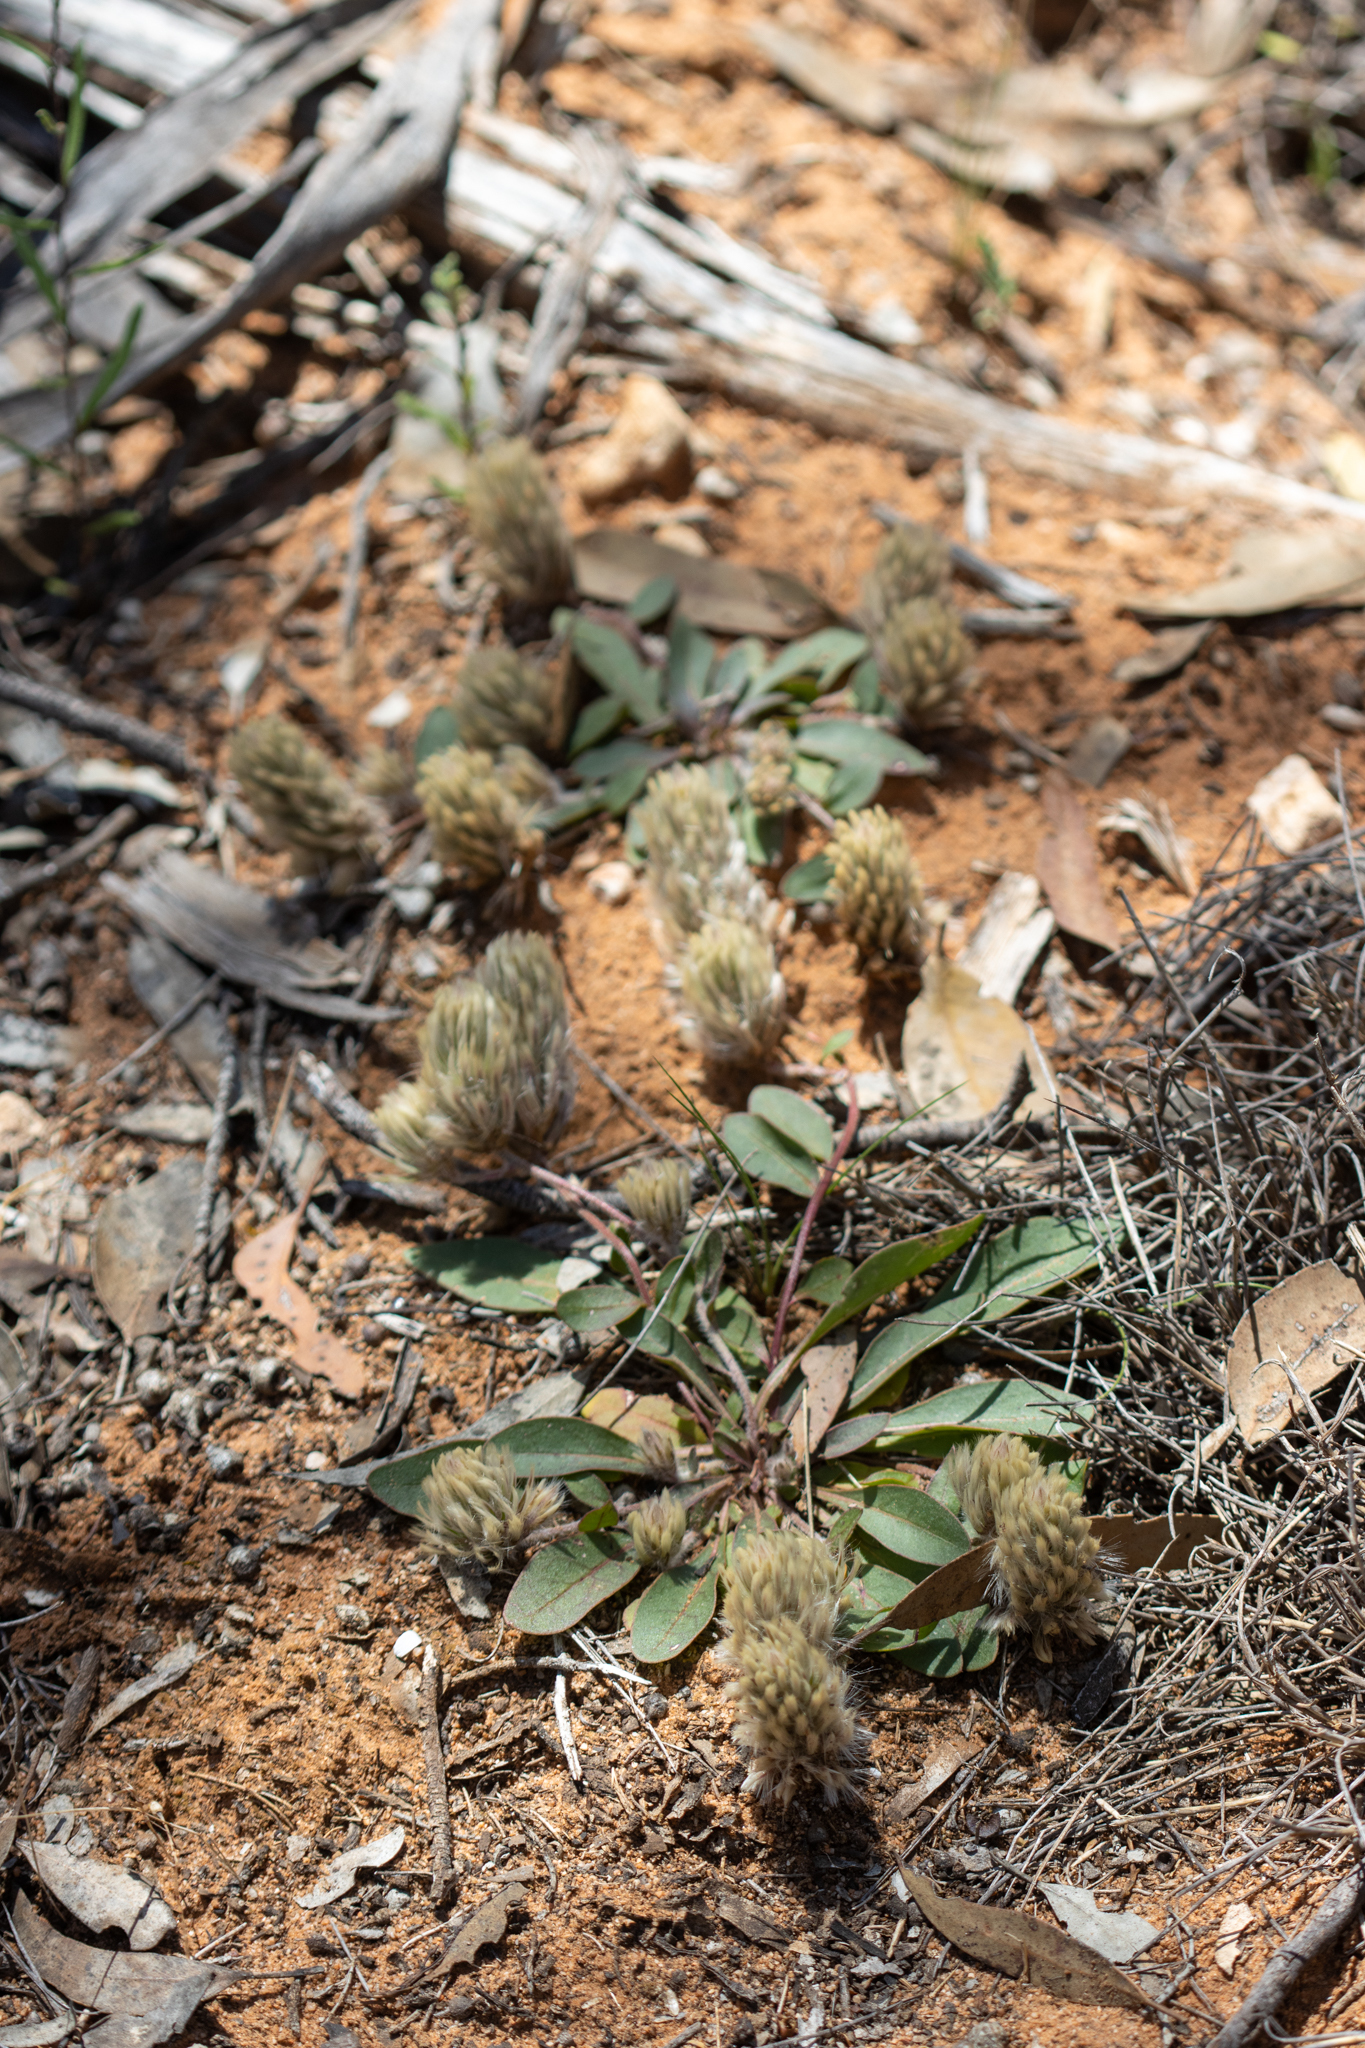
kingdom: Plantae
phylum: Tracheophyta
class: Magnoliopsida
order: Caryophyllales
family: Amaranthaceae
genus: Ptilotus
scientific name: Ptilotus seminudus
